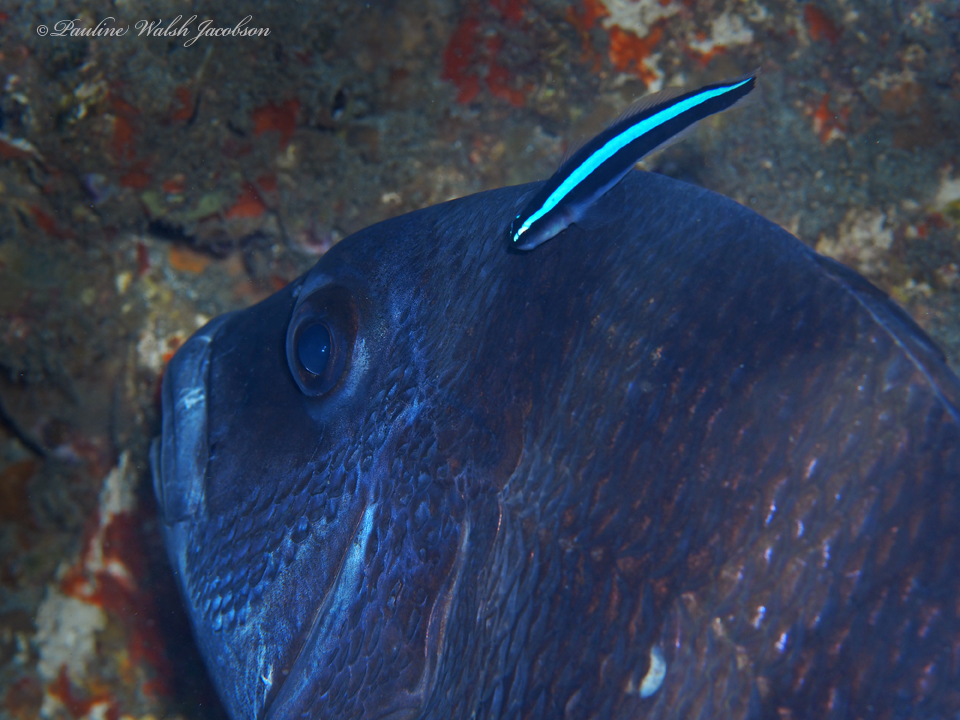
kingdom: Animalia
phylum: Chordata
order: Perciformes
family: Sparidae
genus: Archosargus
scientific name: Archosargus probatocephalus
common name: Sheepshead
